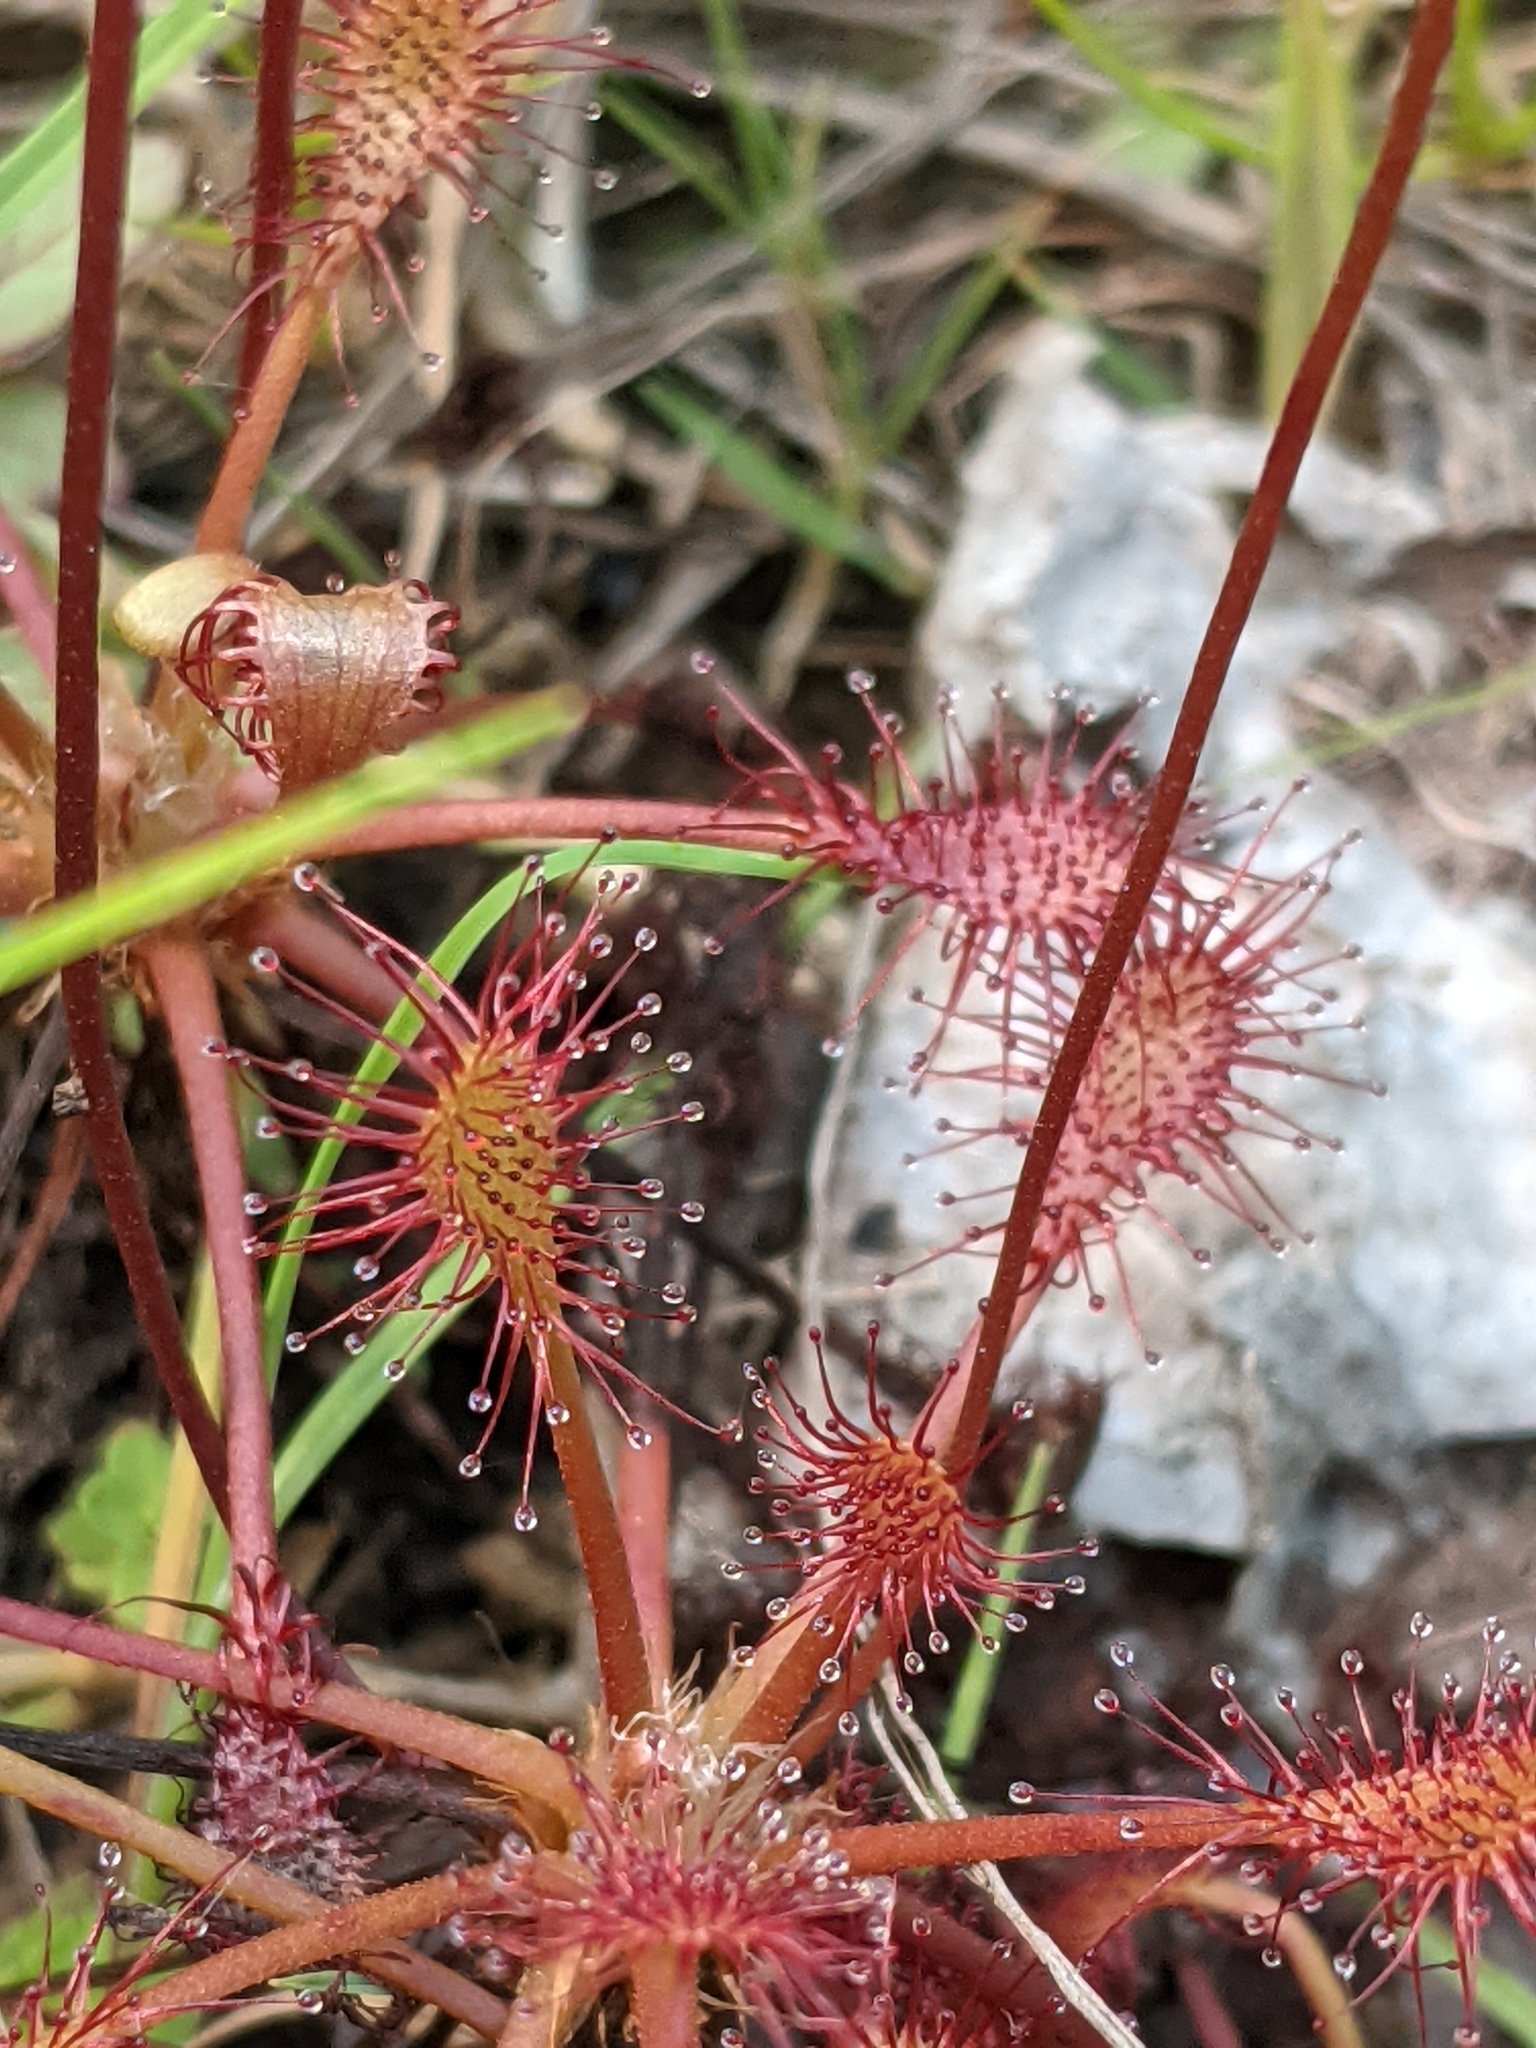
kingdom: Plantae
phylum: Tracheophyta
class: Magnoliopsida
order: Caryophyllales
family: Droseraceae
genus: Drosera
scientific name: Drosera intermedia
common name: Oblong-leaved sundew
